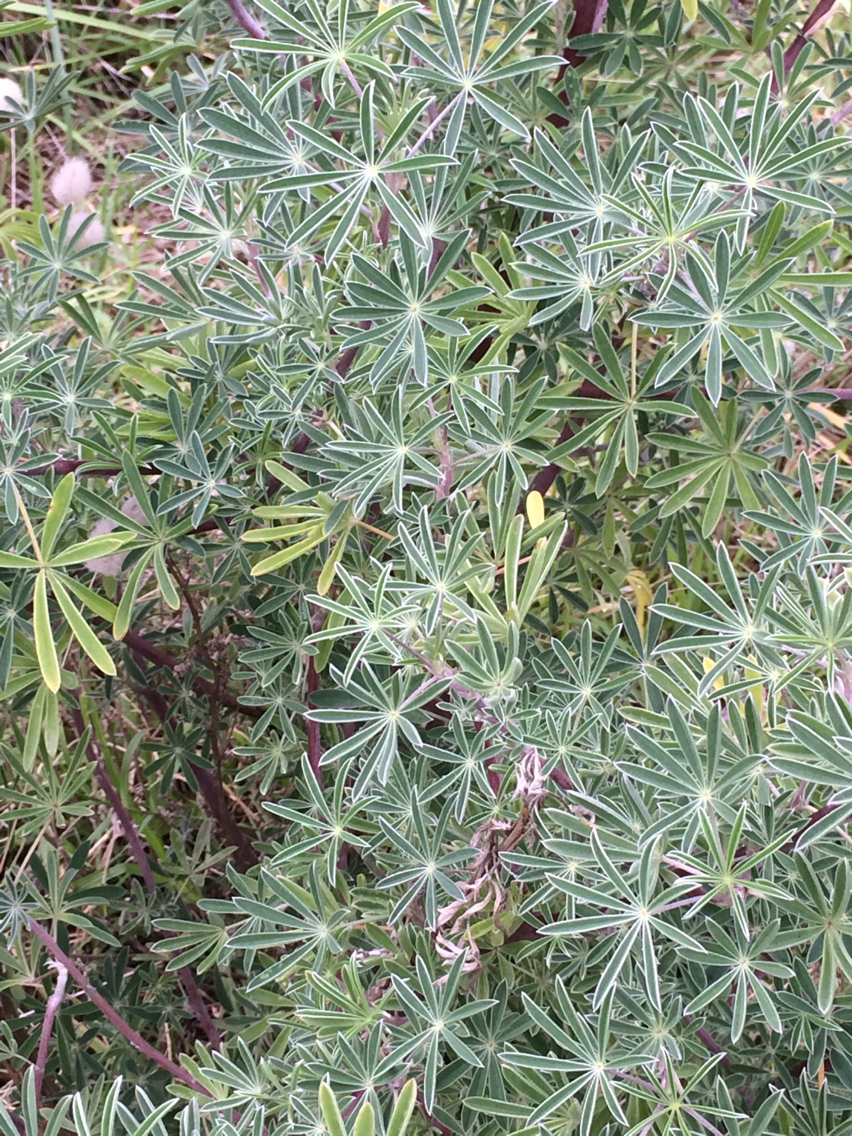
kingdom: Plantae
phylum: Tracheophyta
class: Magnoliopsida
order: Fabales
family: Fabaceae
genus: Lupinus
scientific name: Lupinus arboreus
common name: Yellow bush lupine
